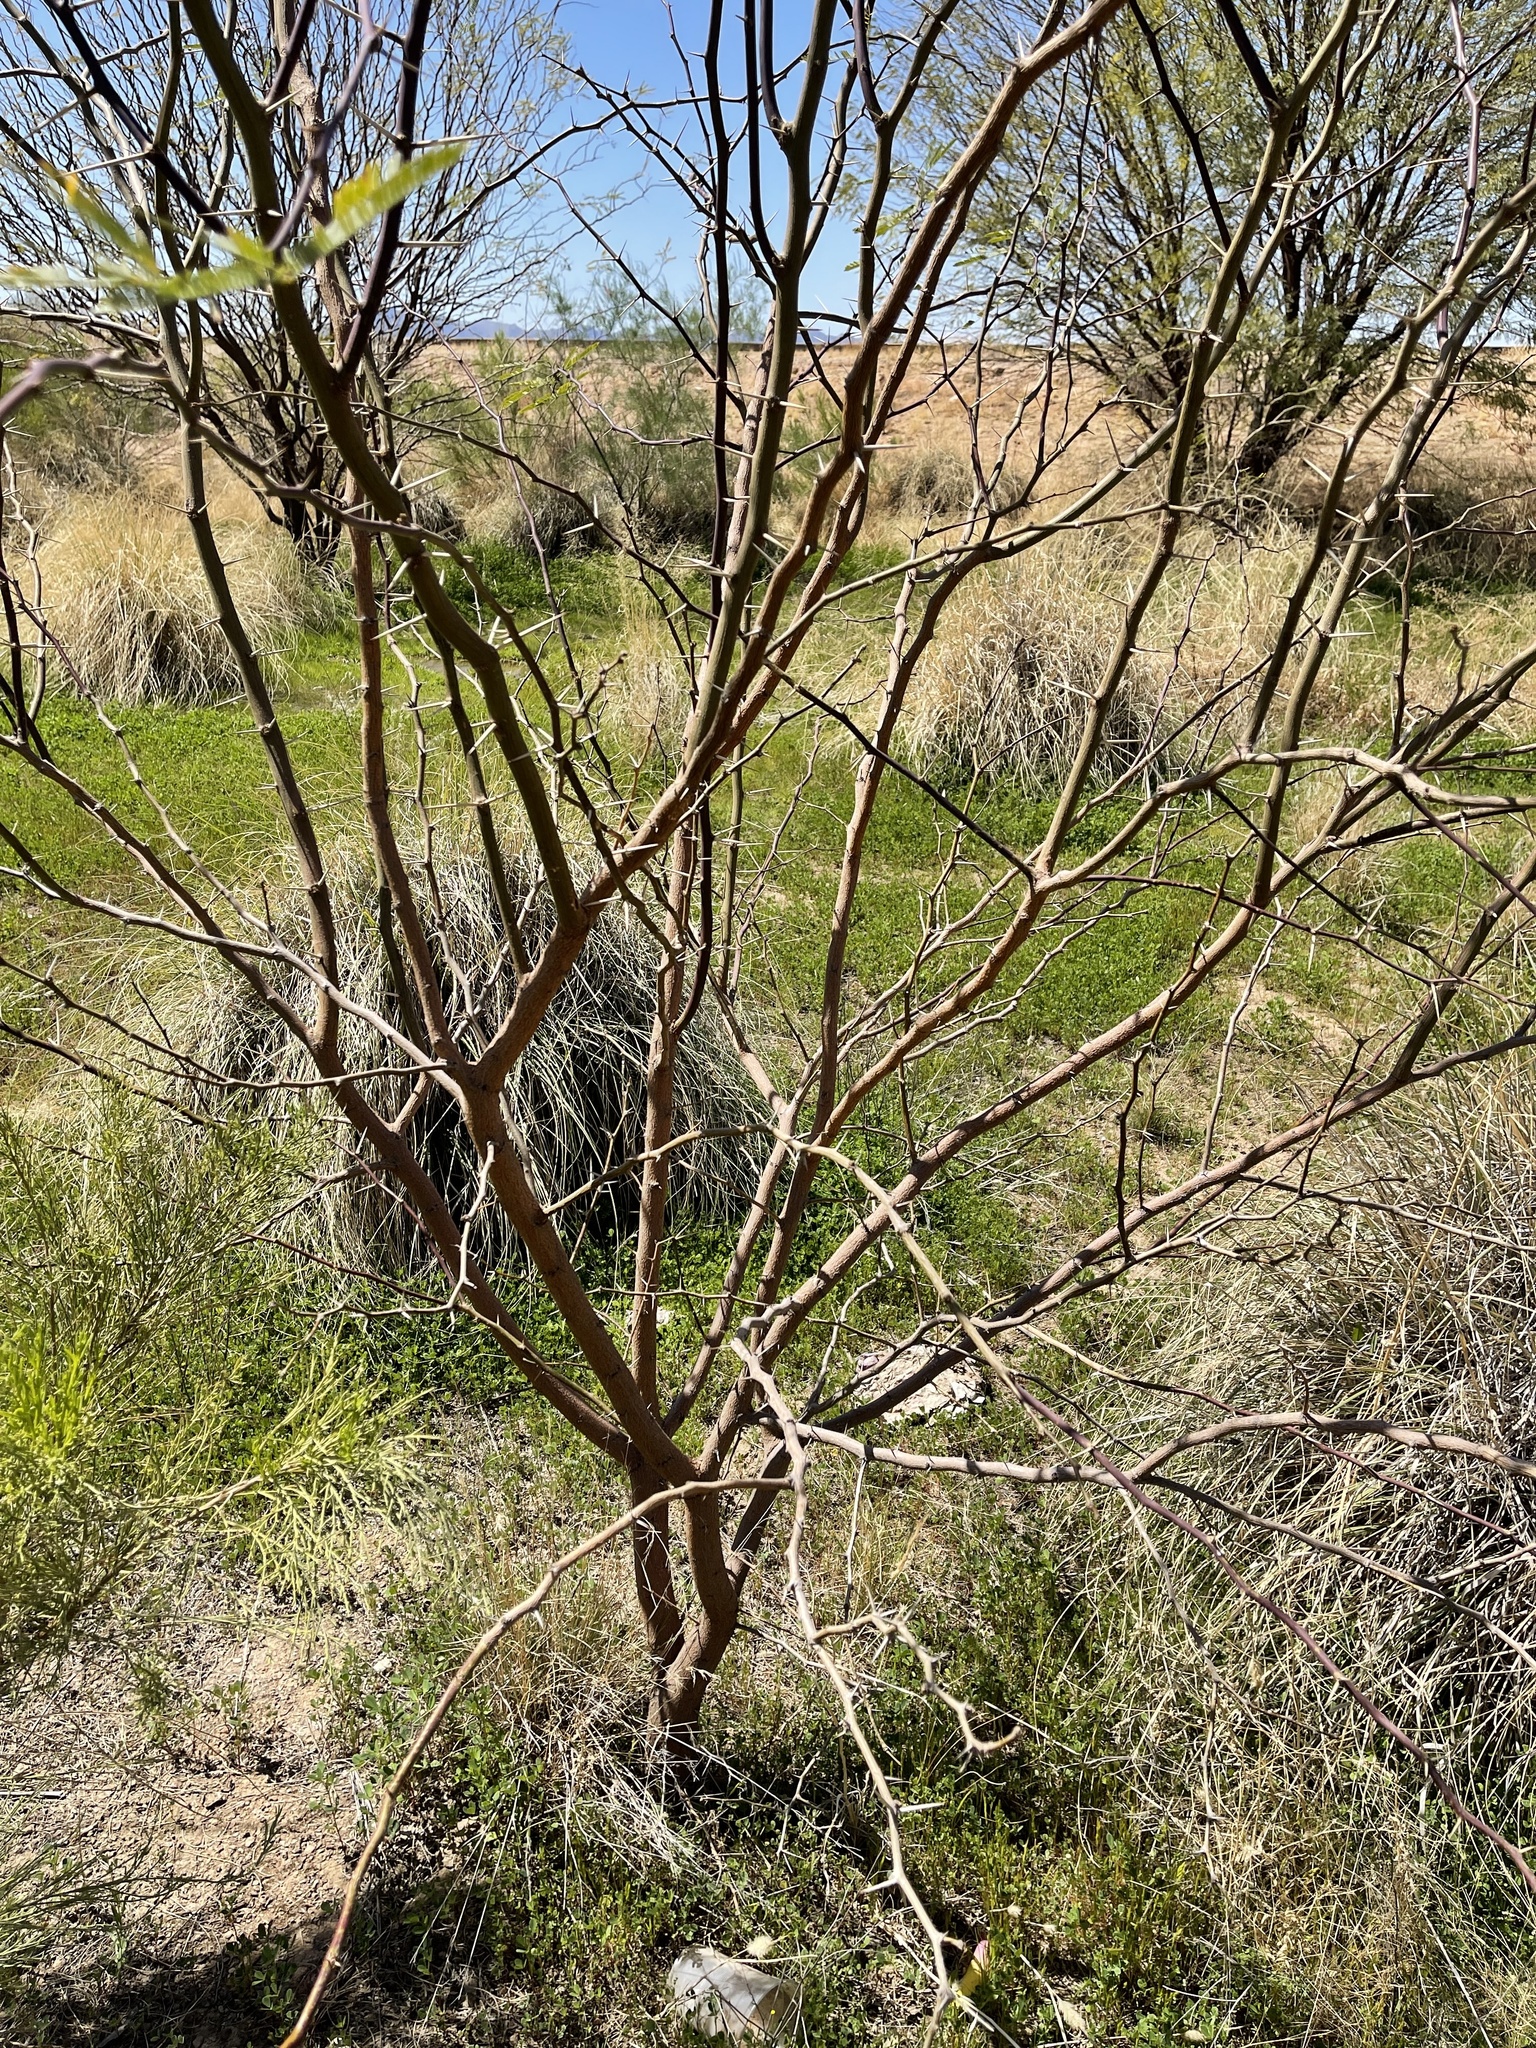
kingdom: Plantae
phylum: Tracheophyta
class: Magnoliopsida
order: Fabales
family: Fabaceae
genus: Prosopis
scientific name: Prosopis velutina
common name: Velvet mesquite
